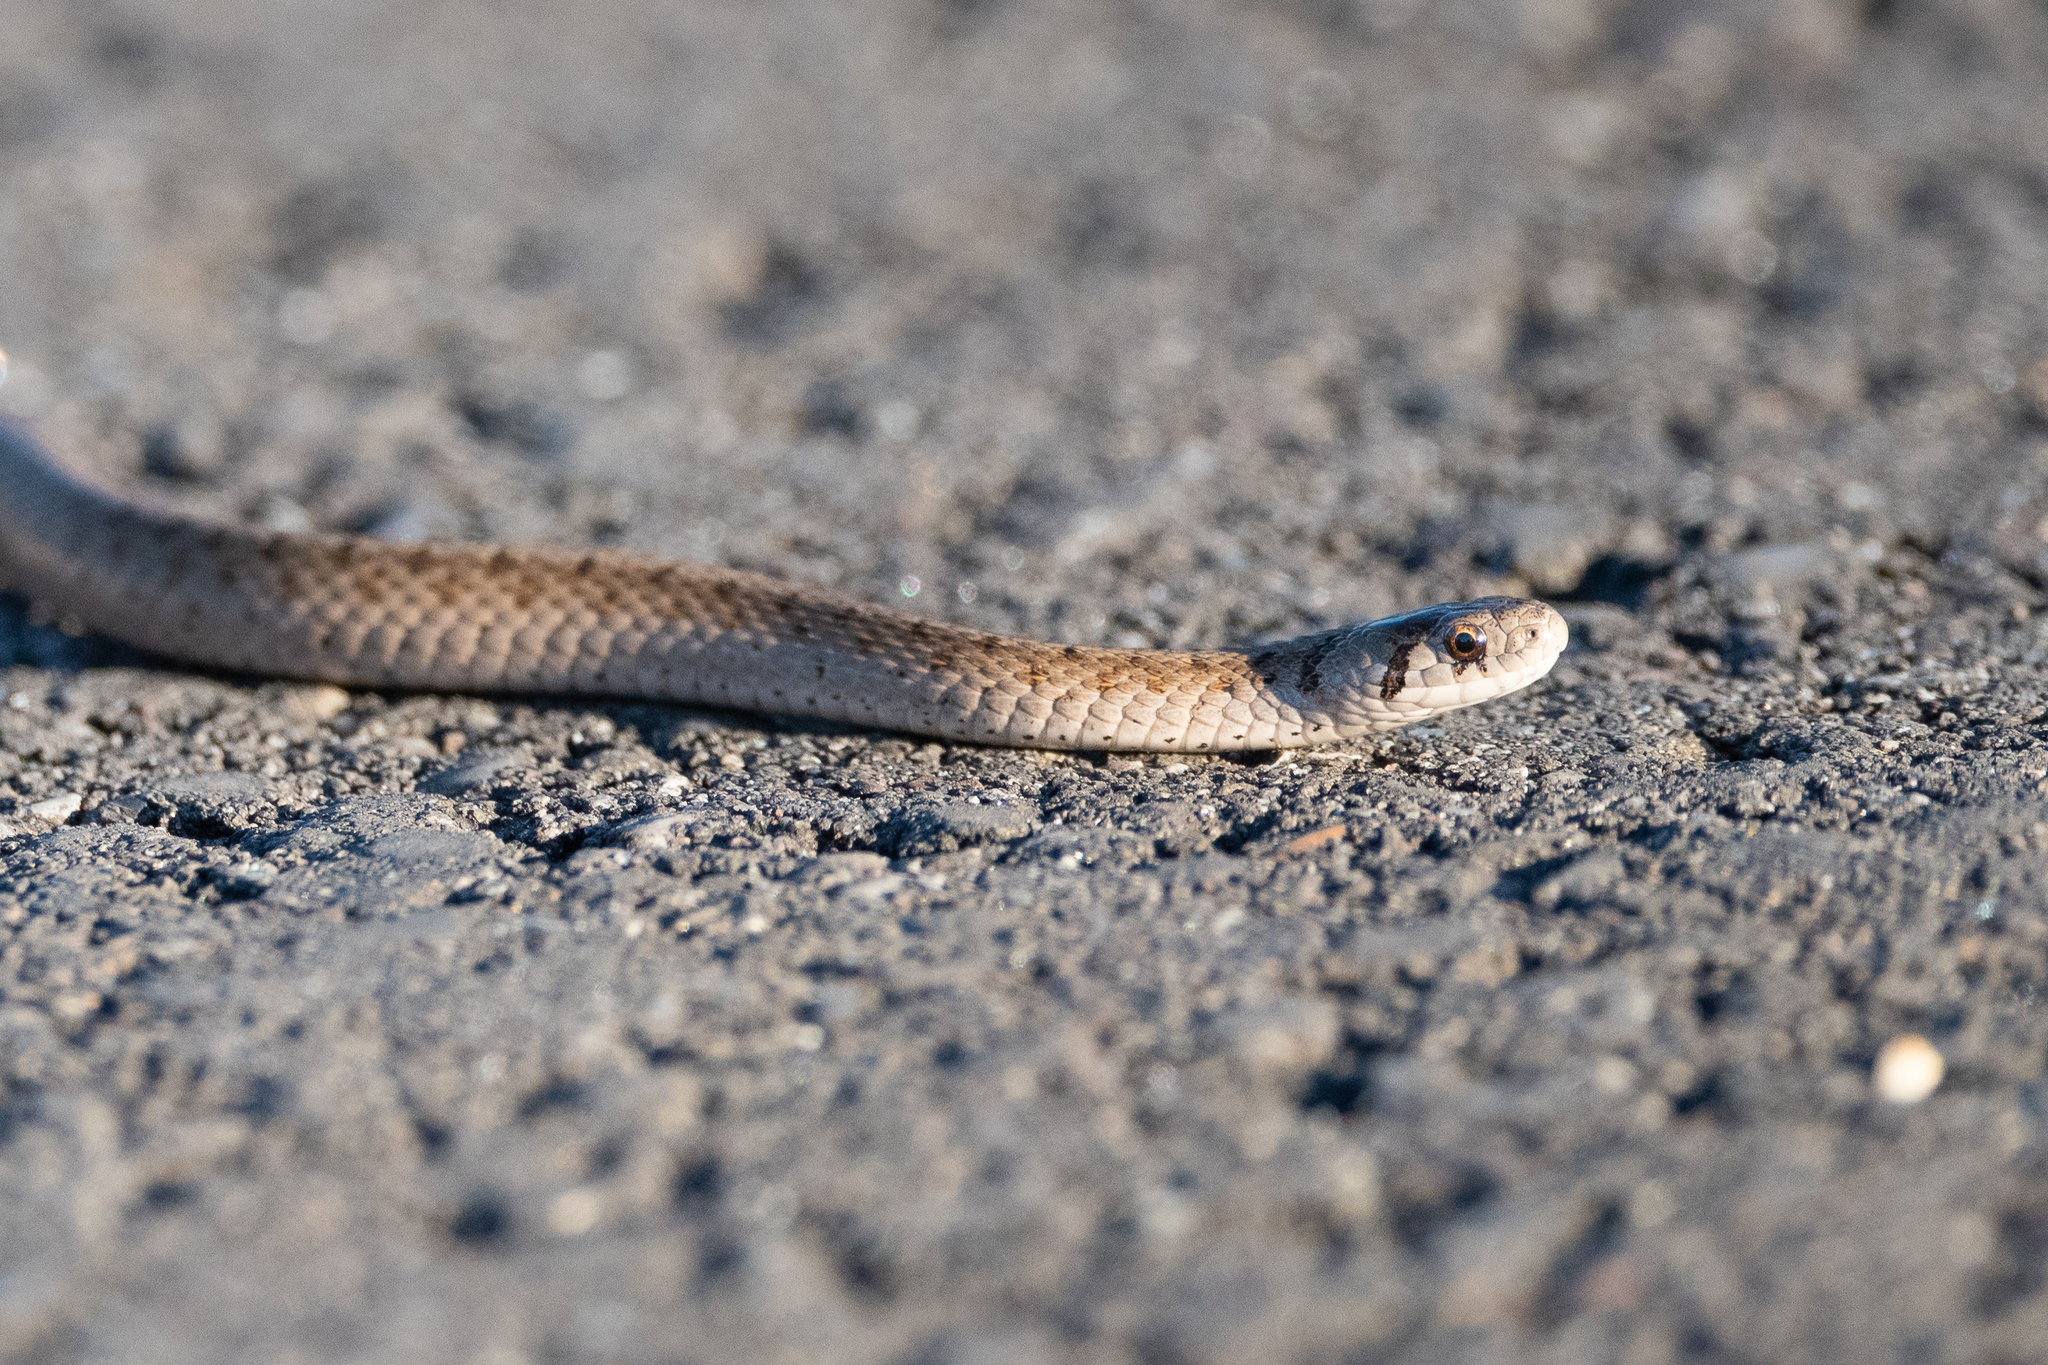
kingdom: Animalia
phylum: Chordata
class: Squamata
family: Colubridae
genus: Storeria
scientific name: Storeria dekayi
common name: (dekay’s) brown snake
